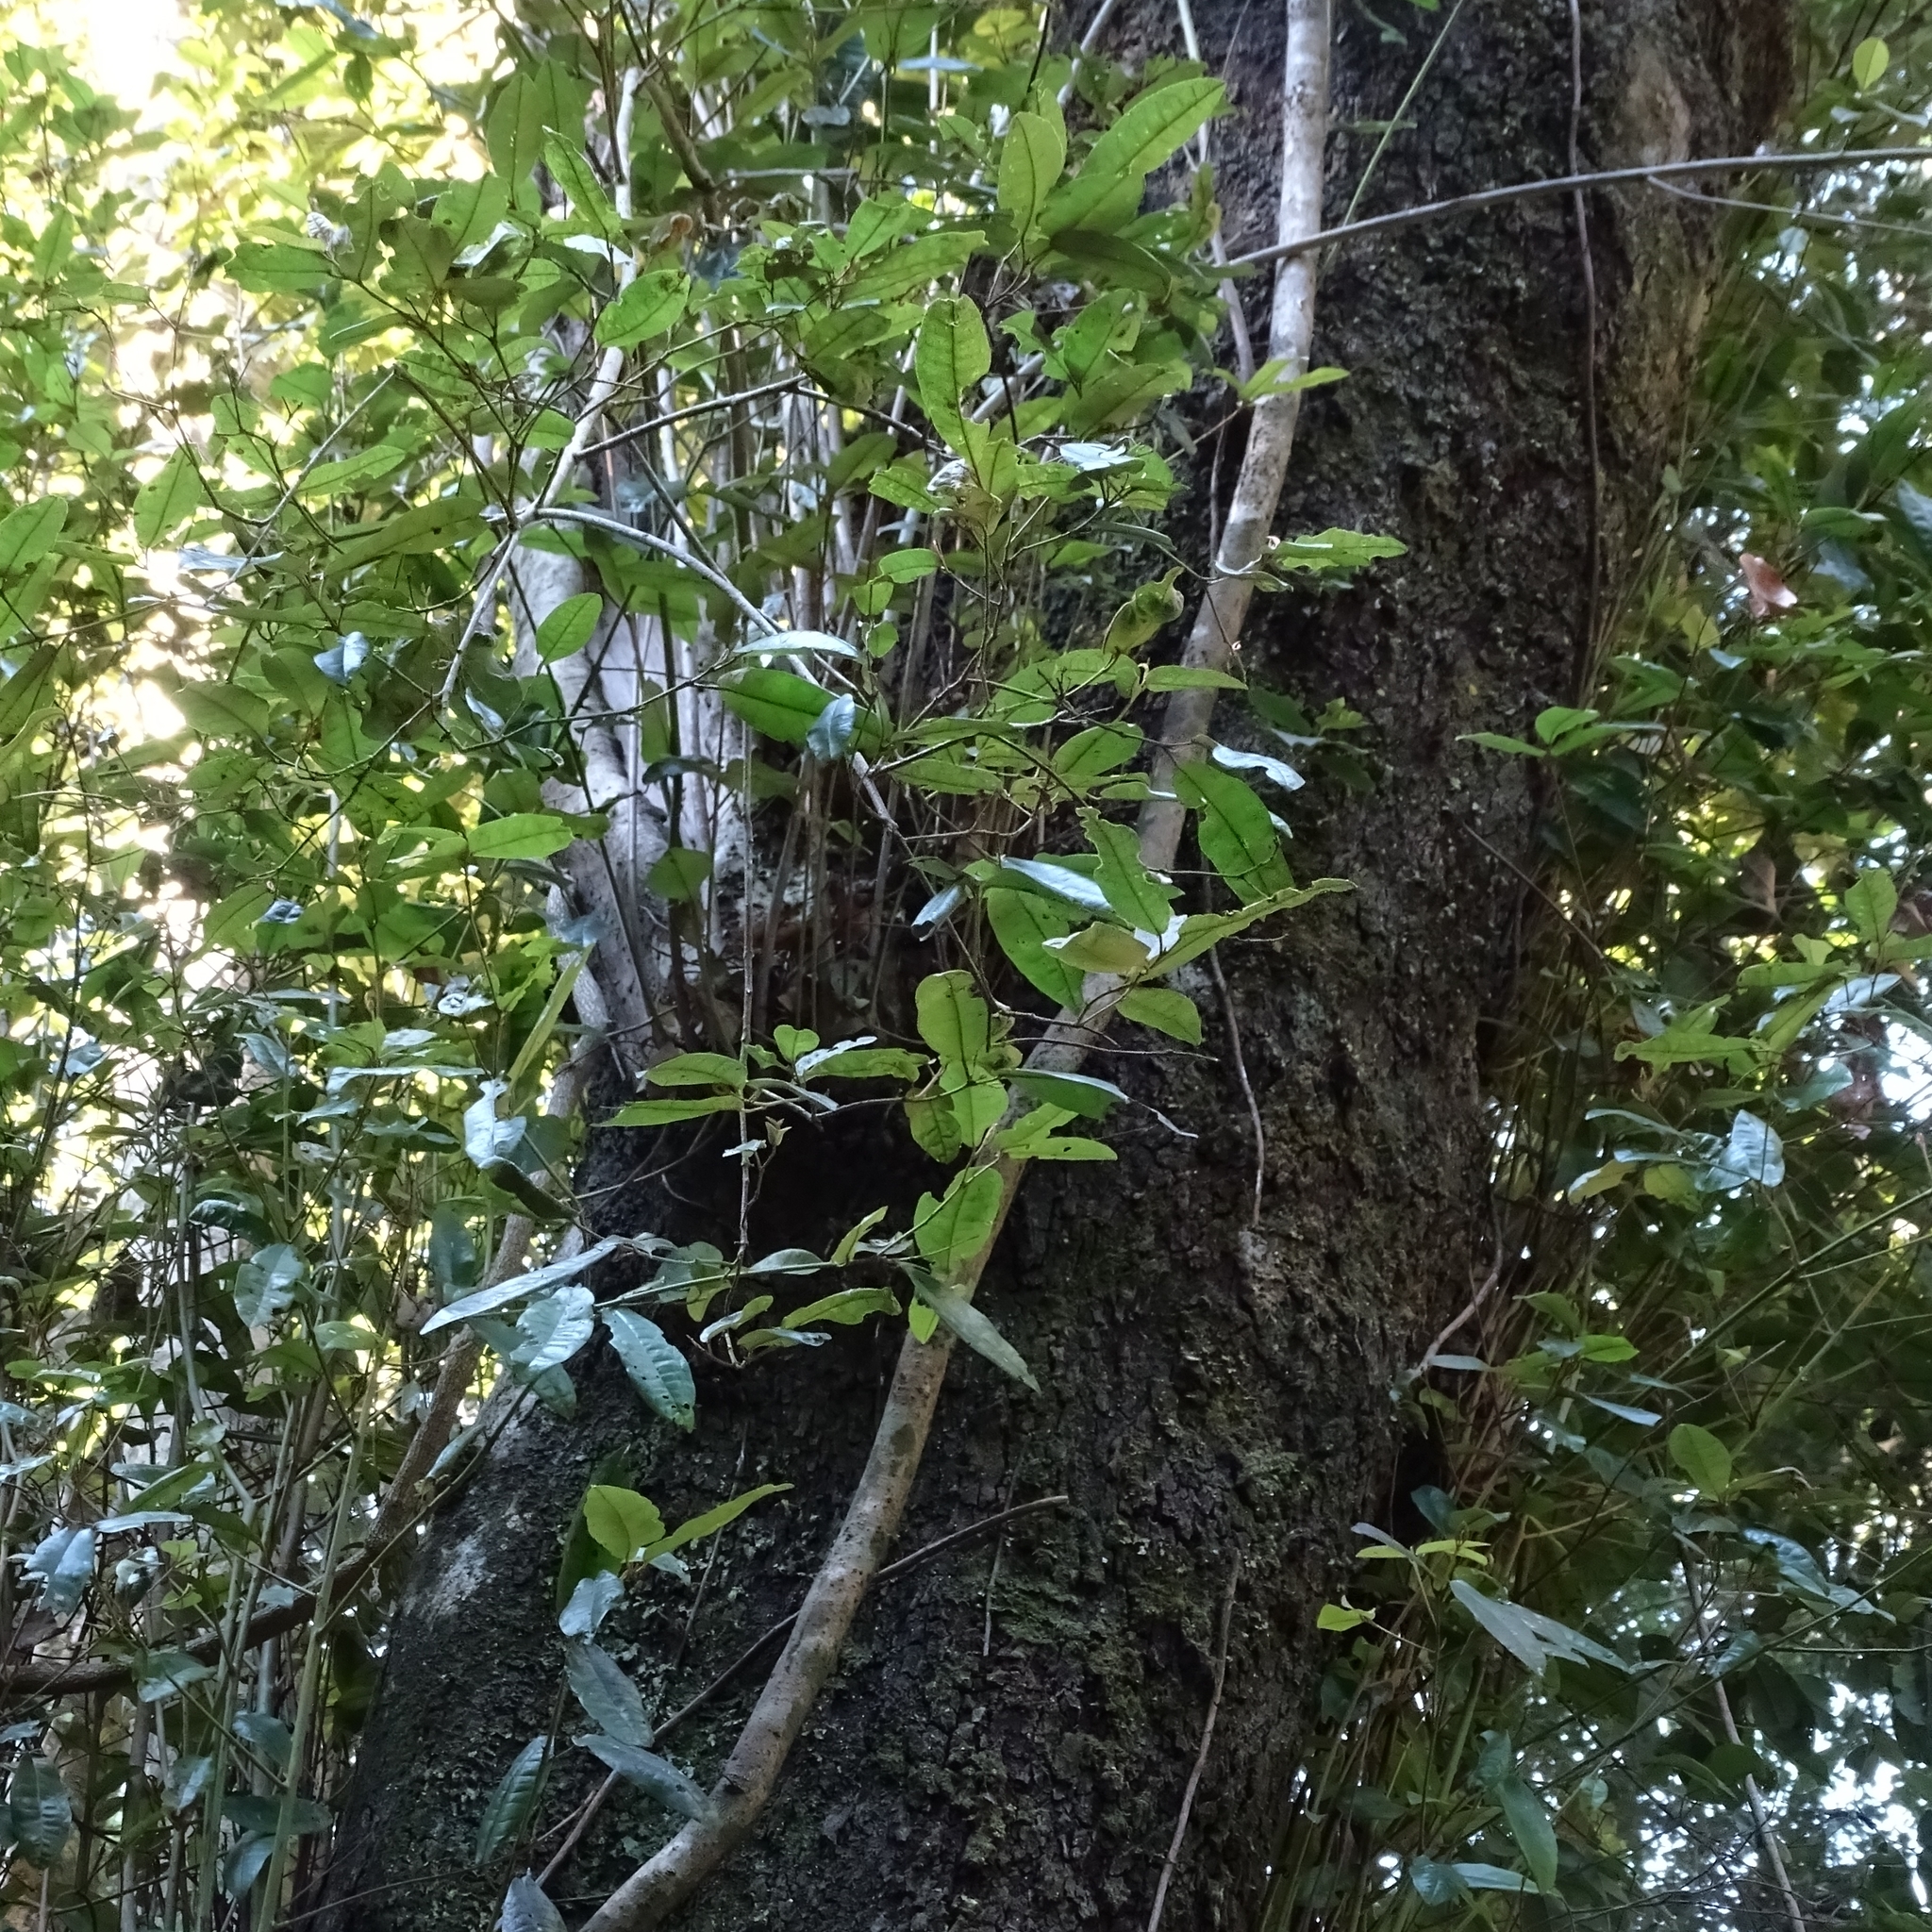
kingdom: Plantae
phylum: Tracheophyta
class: Magnoliopsida
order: Berberidopsidales
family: Aextoxicaceae
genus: Aextoxicon
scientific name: Aextoxicon punctatum
